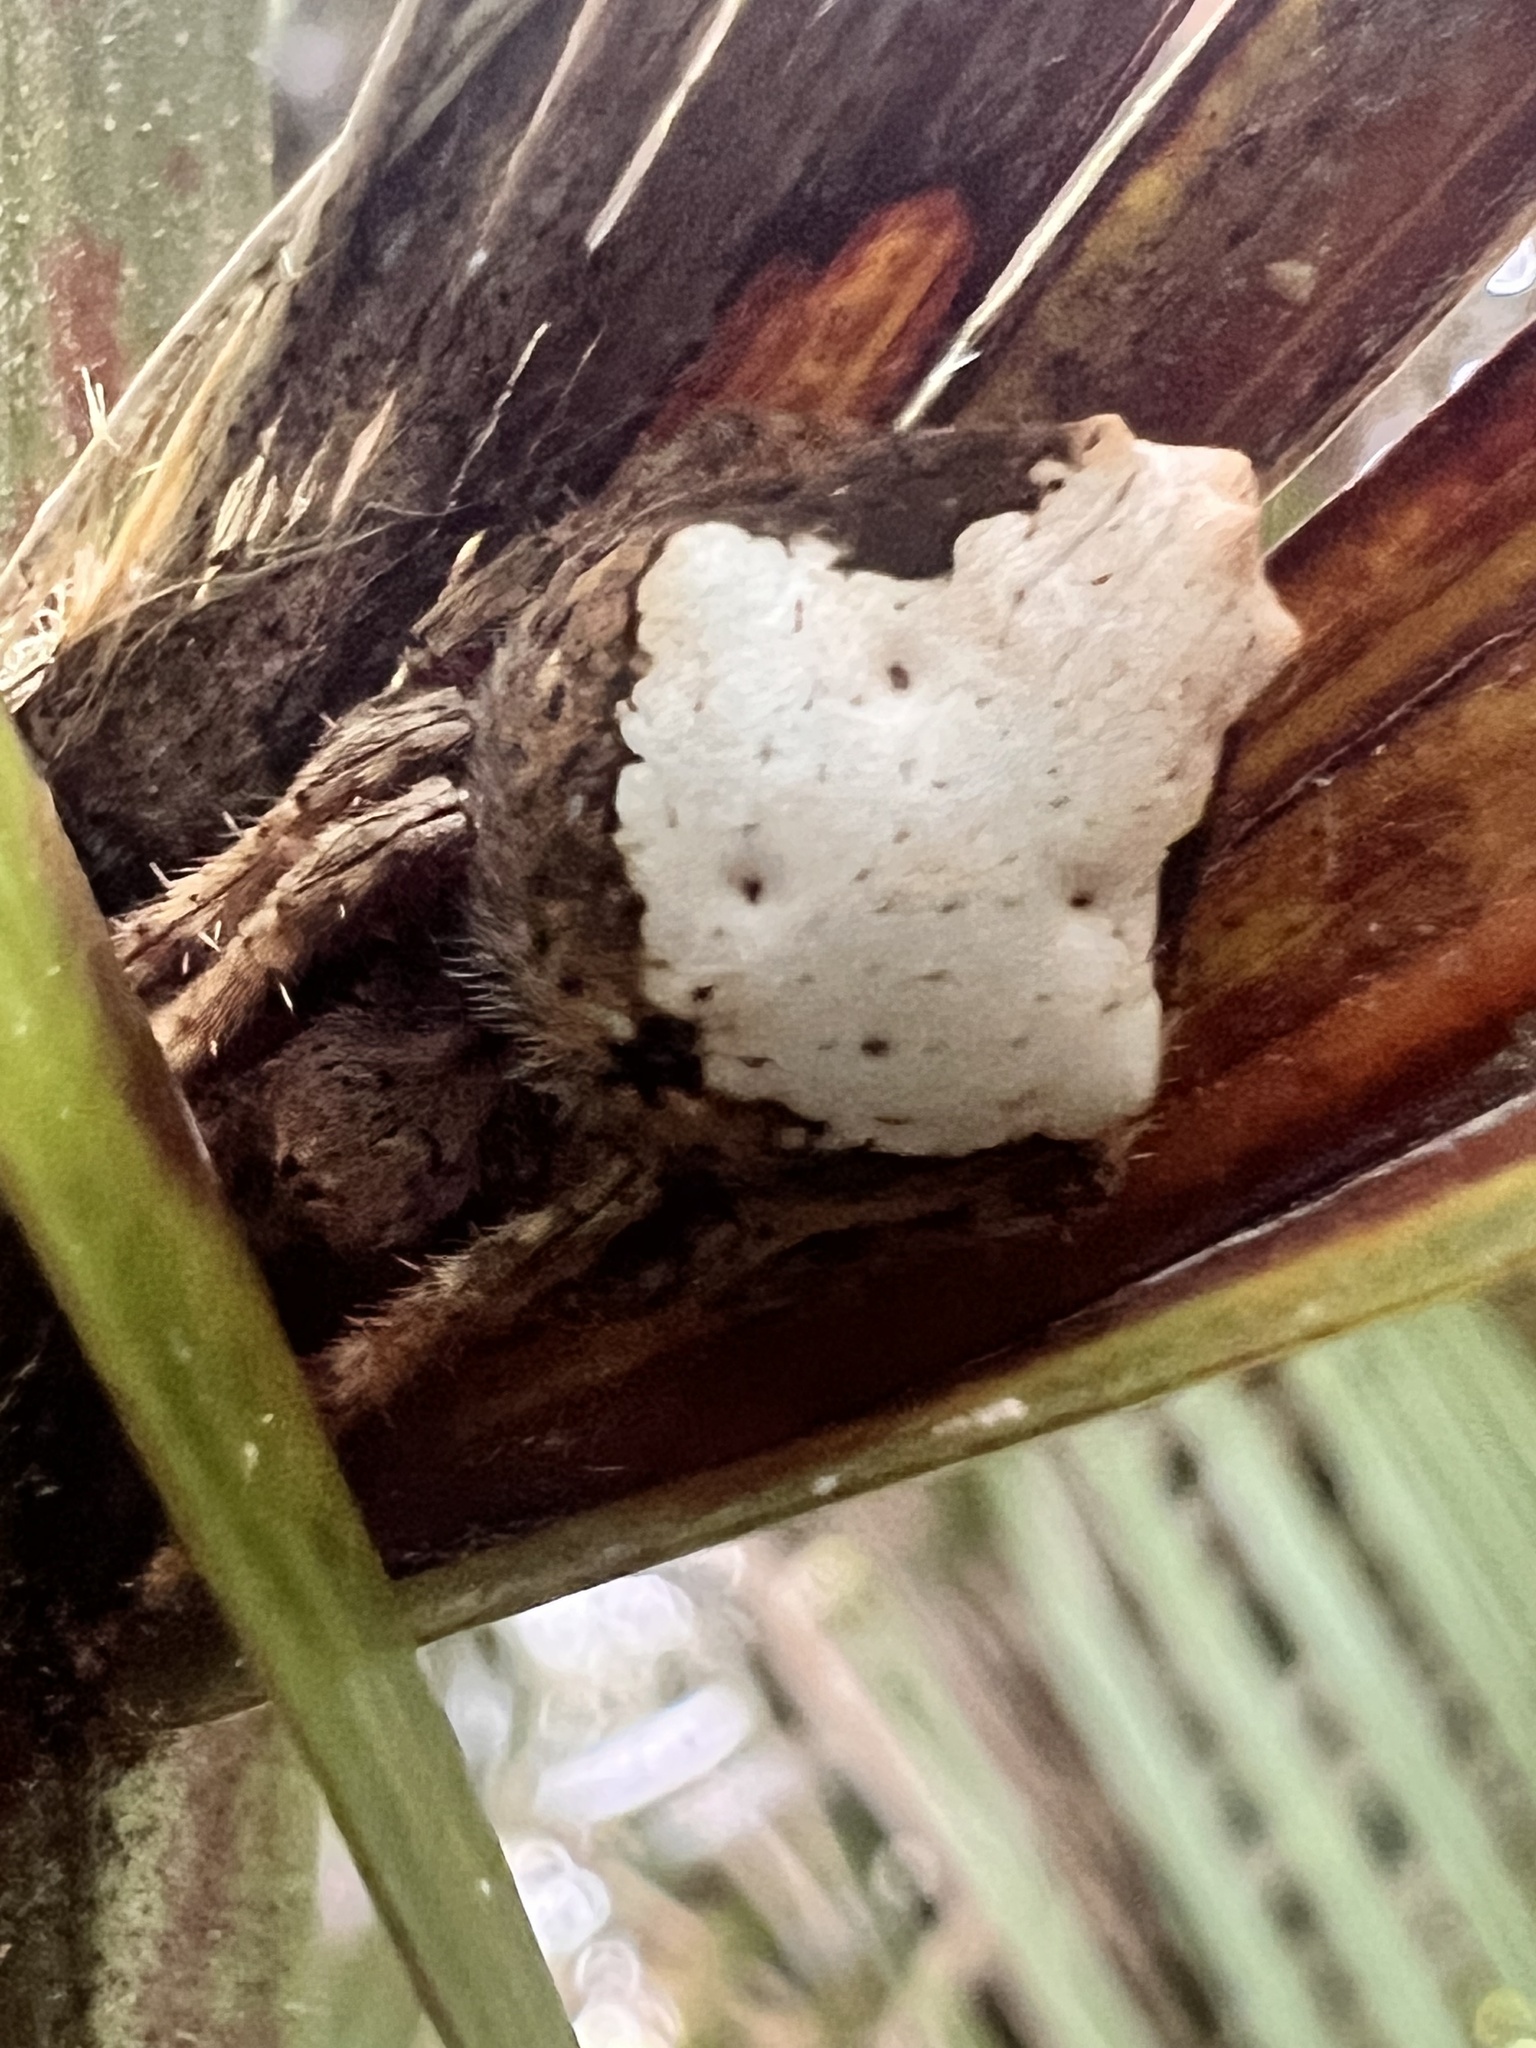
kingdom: Animalia
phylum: Arthropoda
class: Arachnida
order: Araneae
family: Araneidae
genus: Eriophora
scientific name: Eriophora pustulosa
